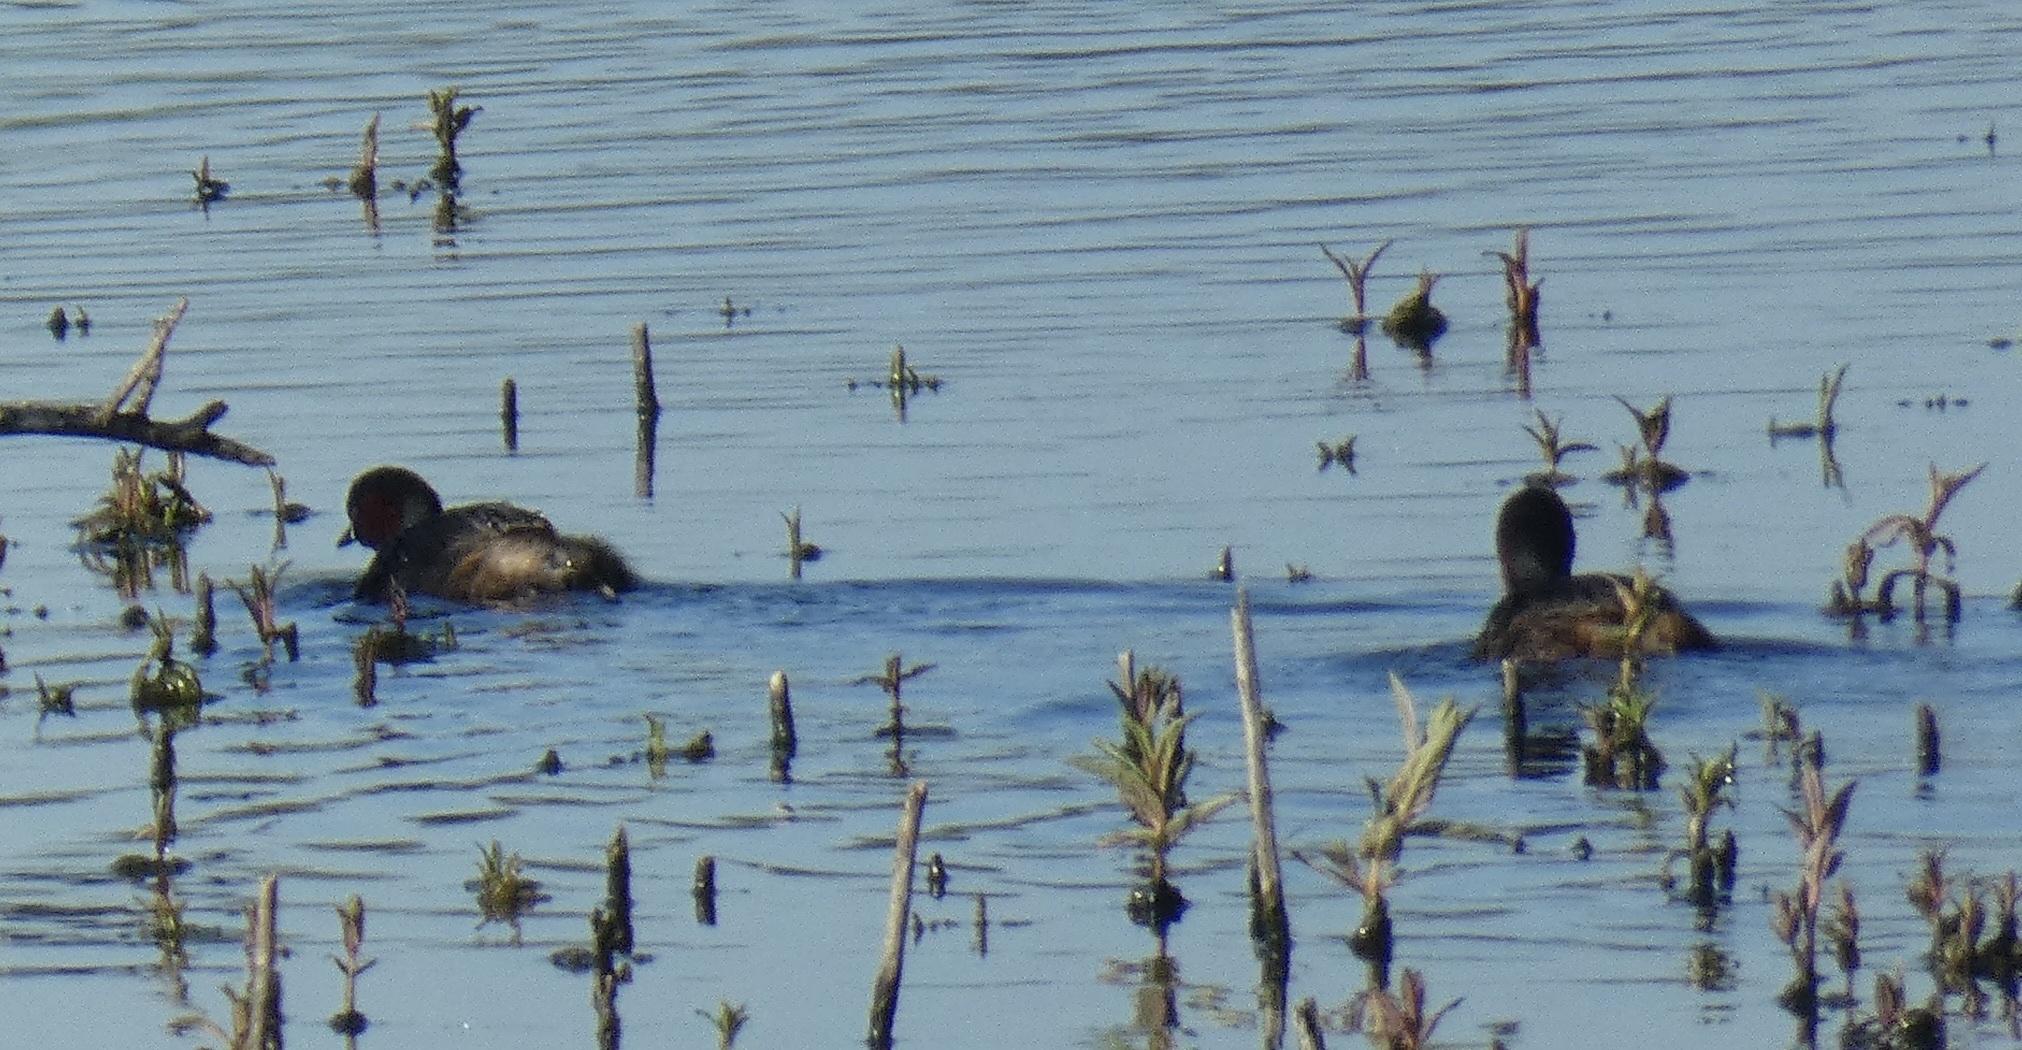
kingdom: Animalia
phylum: Chordata
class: Aves
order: Podicipediformes
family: Podicipedidae
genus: Tachybaptus
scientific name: Tachybaptus ruficollis
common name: Little grebe
